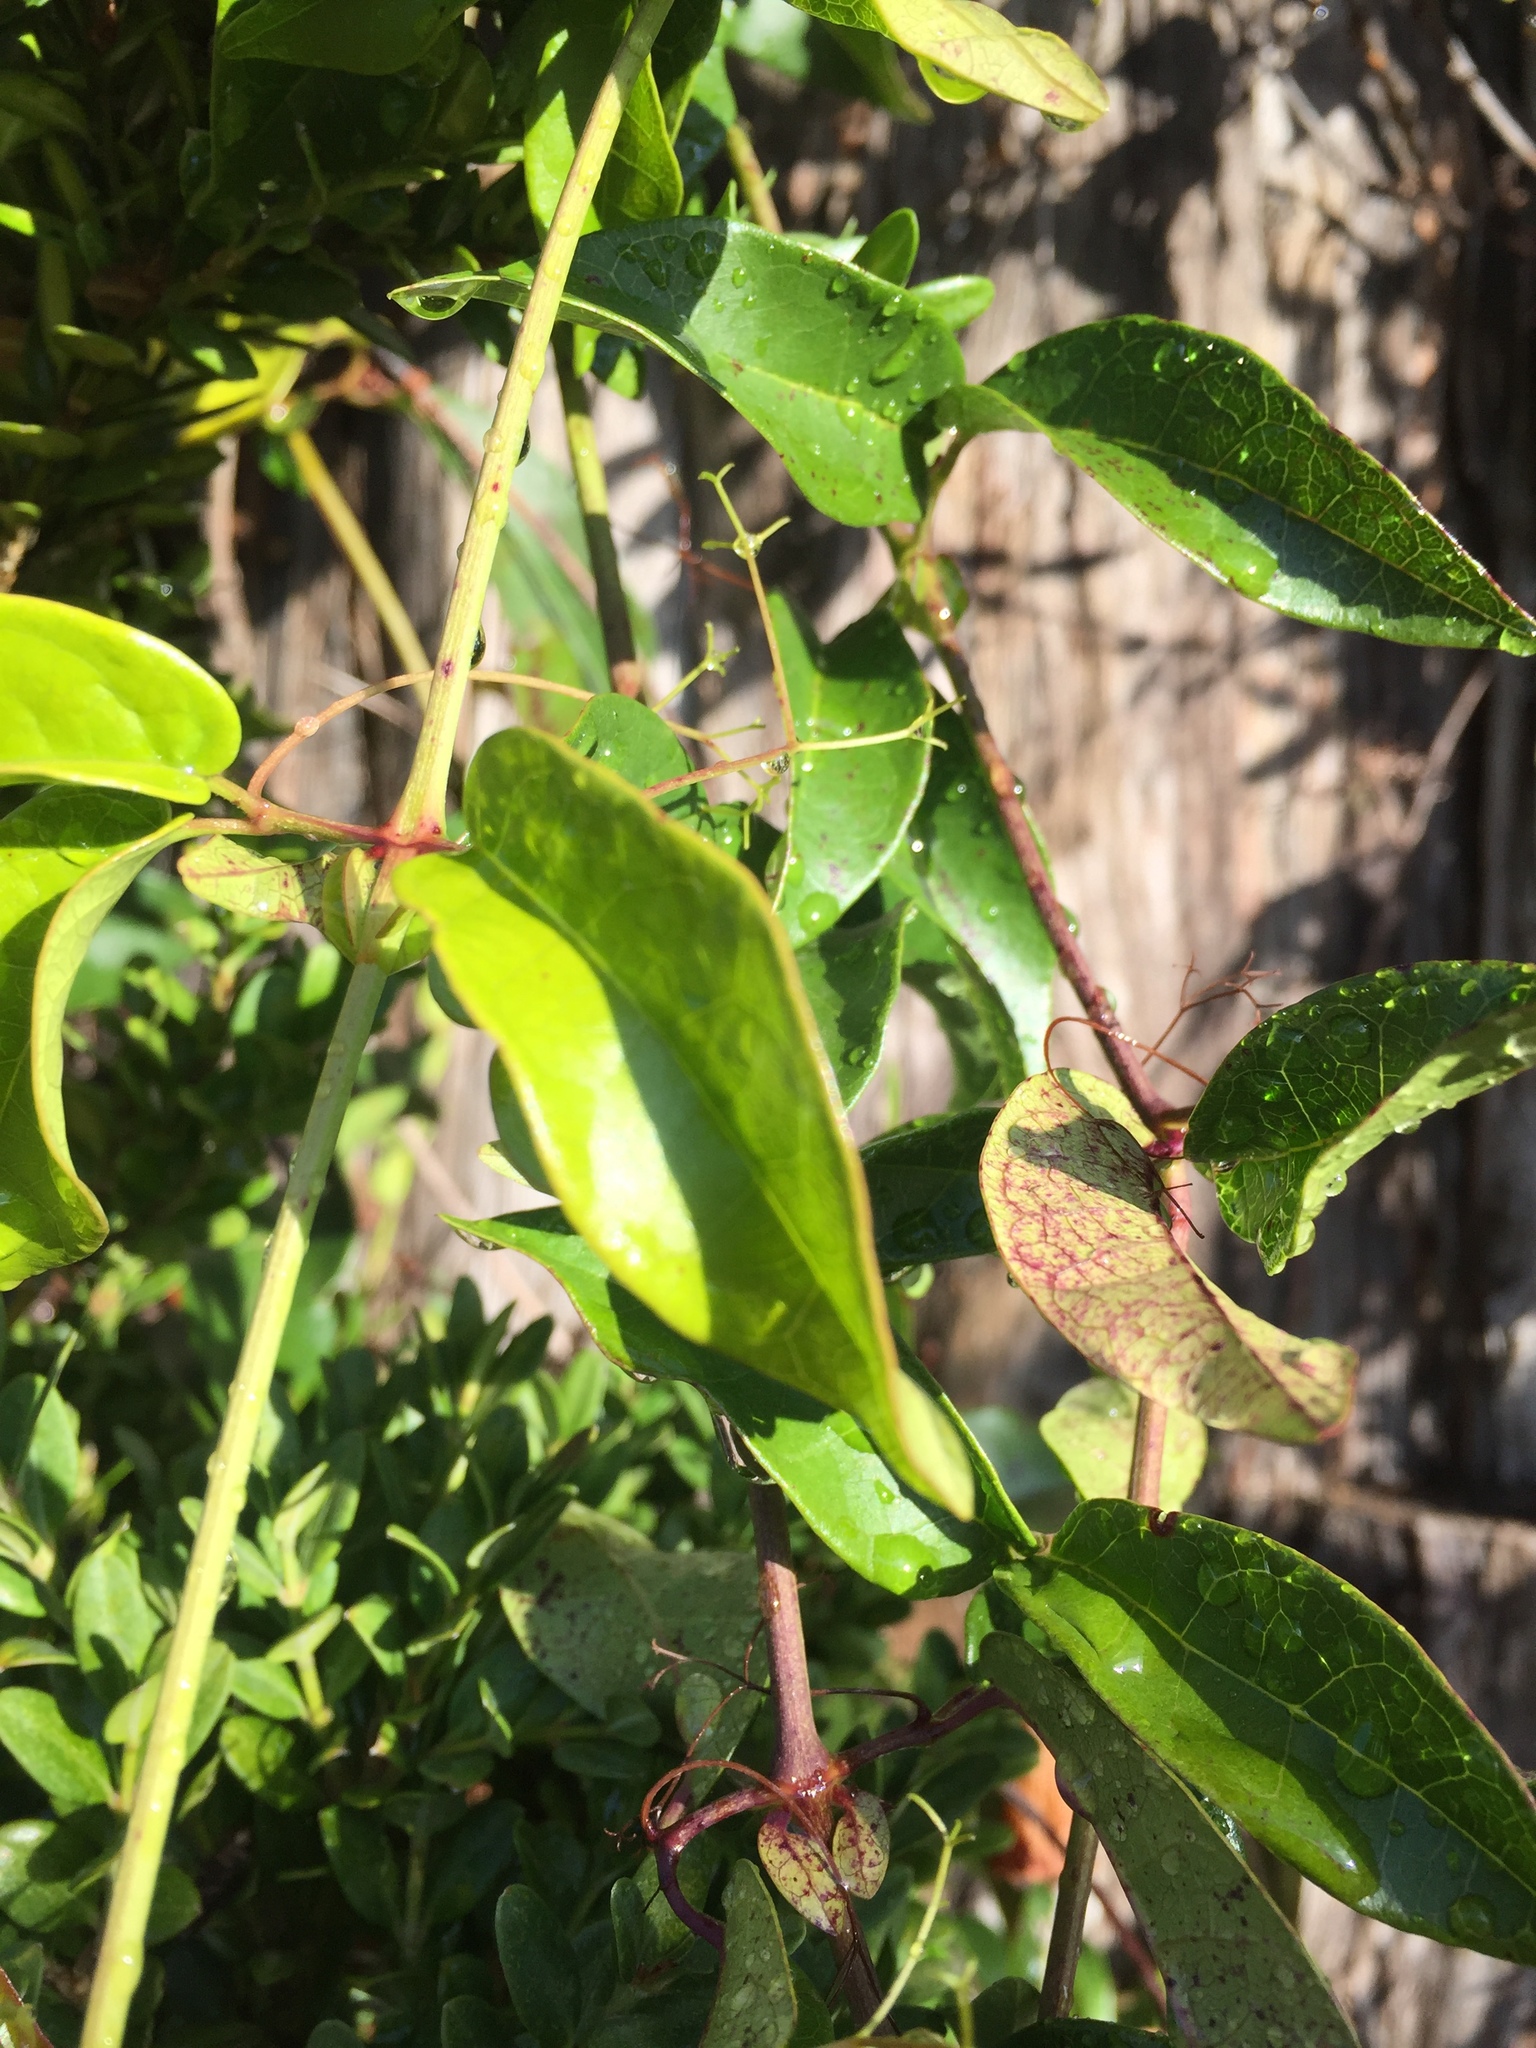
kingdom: Plantae
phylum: Tracheophyta
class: Magnoliopsida
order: Lamiales
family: Bignoniaceae
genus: Bignonia
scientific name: Bignonia capreolata
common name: Crossvine
